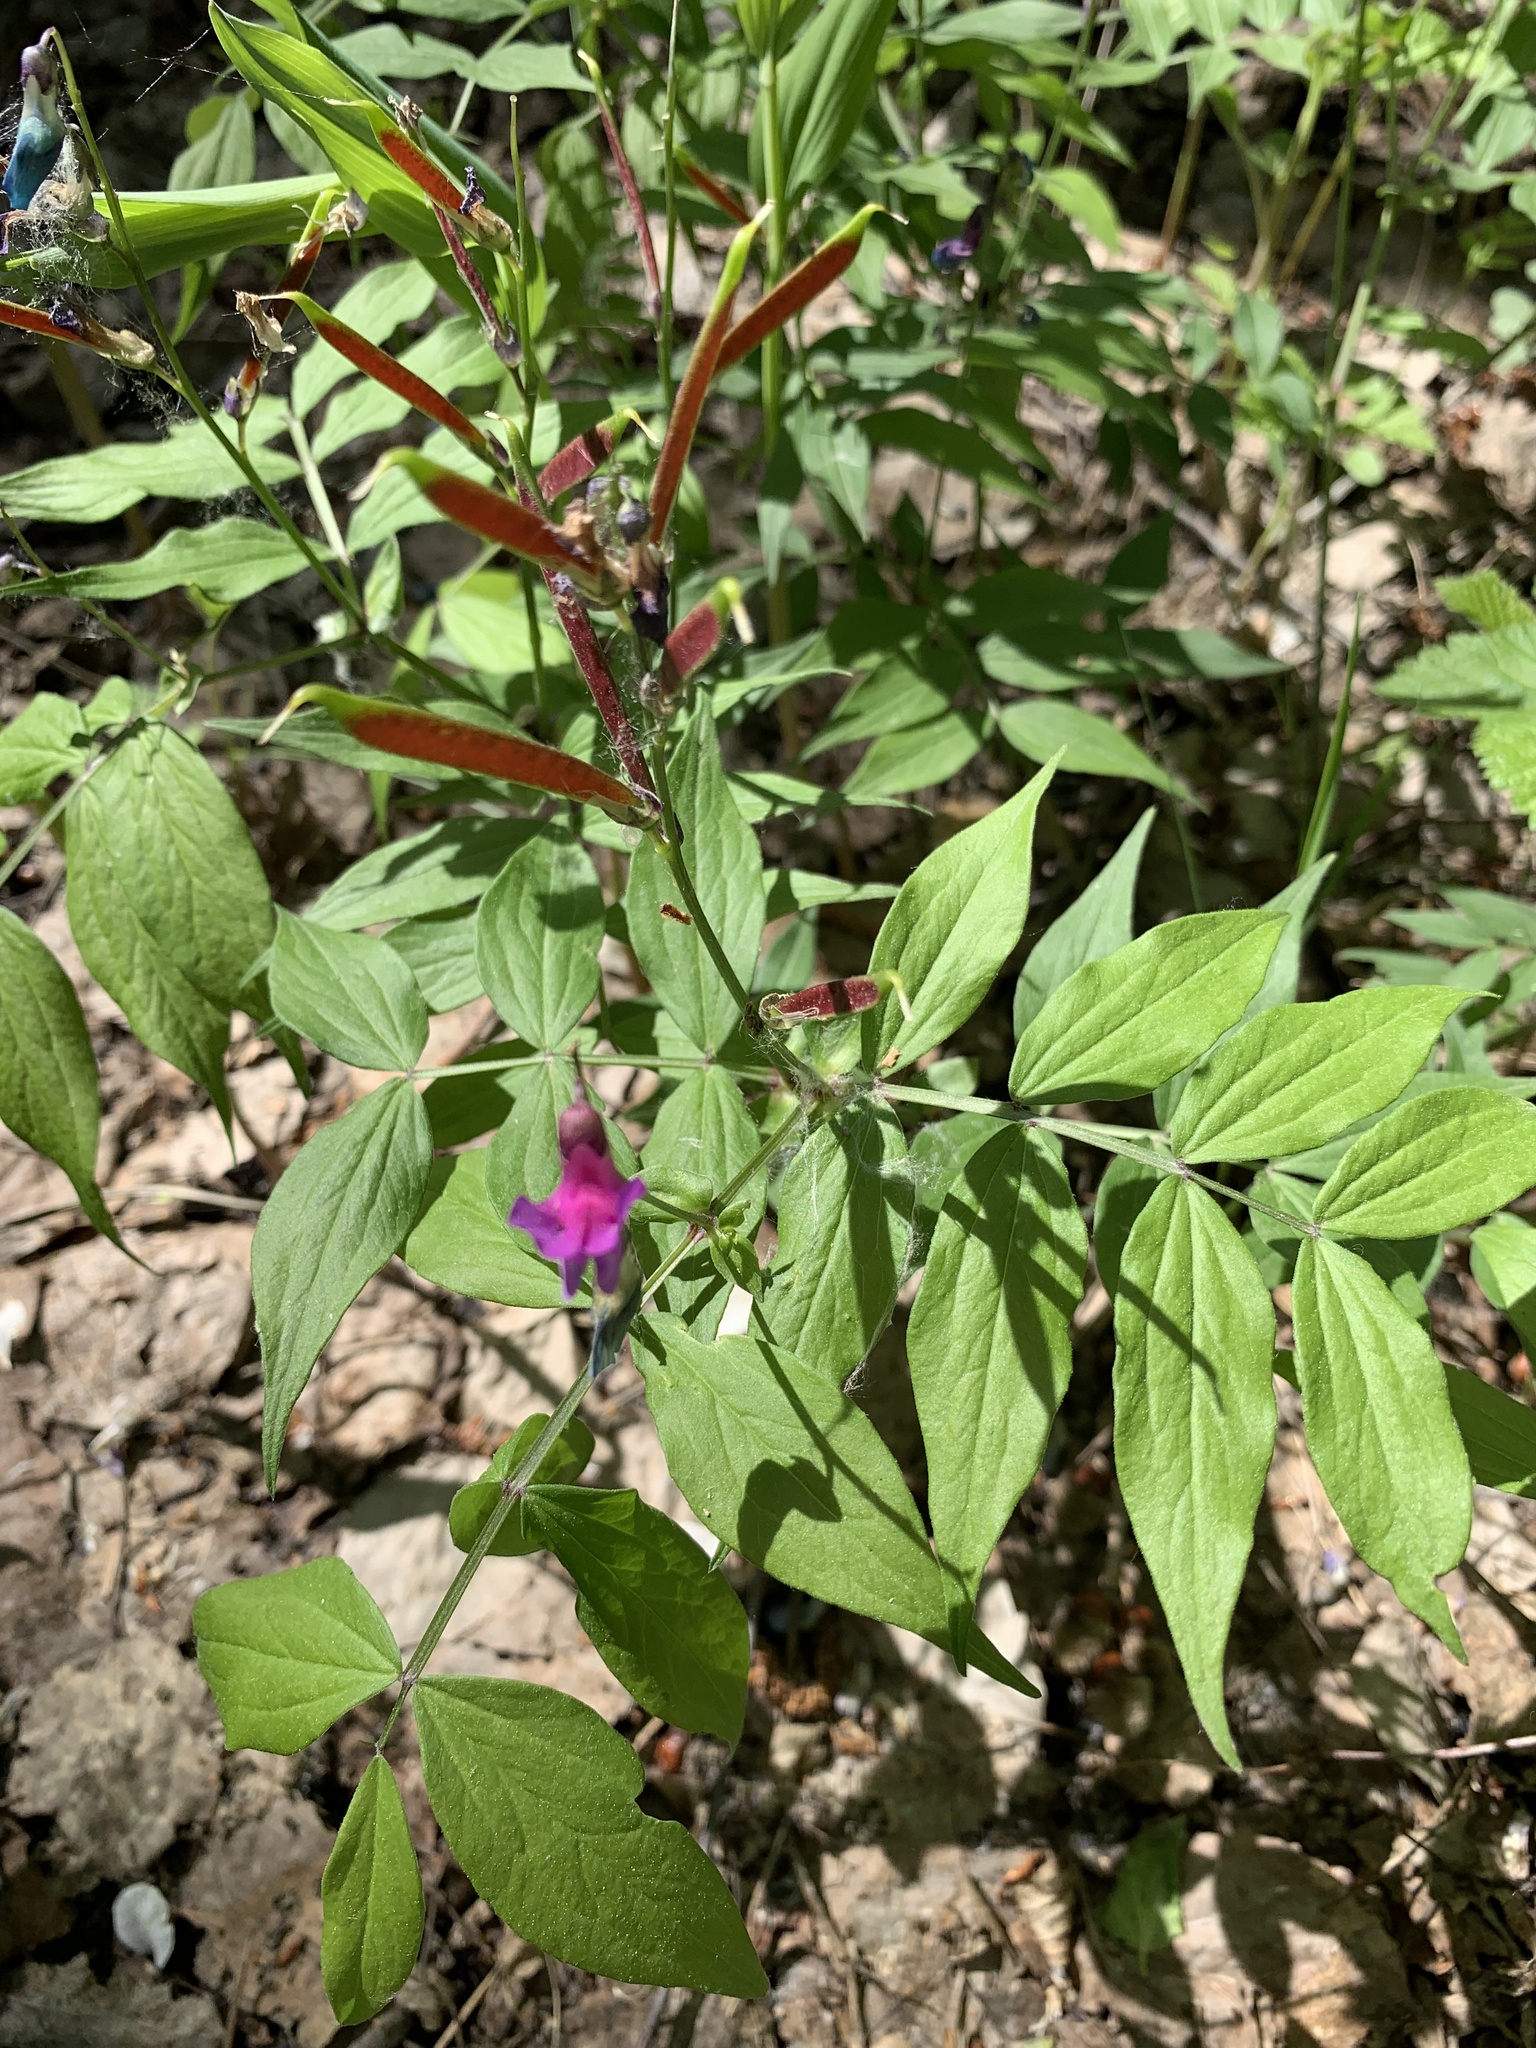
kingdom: Plantae
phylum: Tracheophyta
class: Magnoliopsida
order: Fabales
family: Fabaceae
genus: Lathyrus
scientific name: Lathyrus vernus
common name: Spring pea
